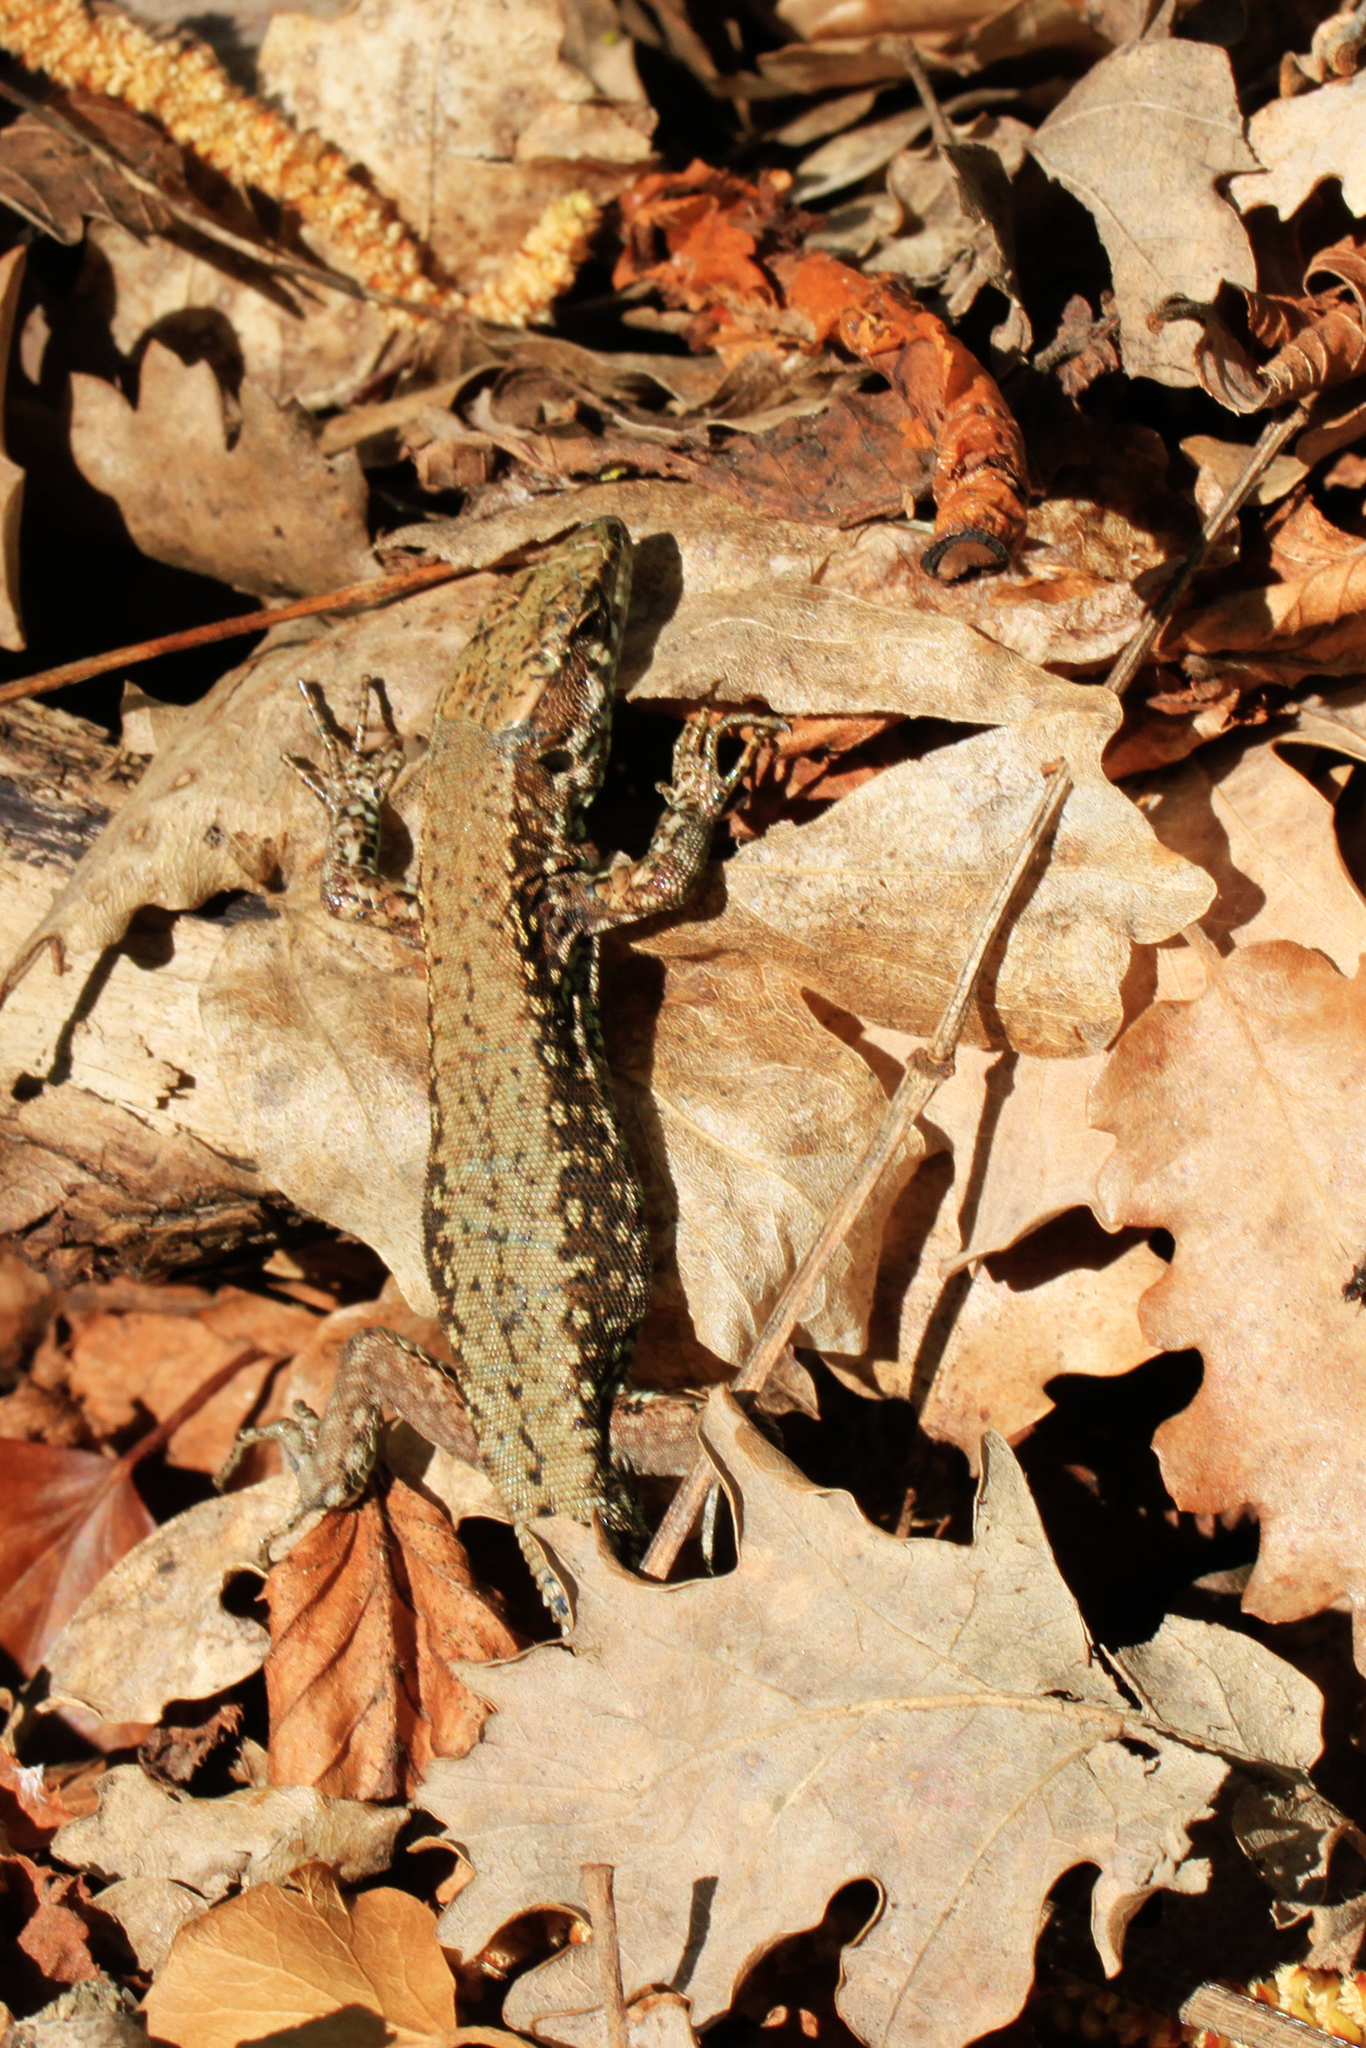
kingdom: Animalia
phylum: Chordata
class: Squamata
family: Lacertidae
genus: Podarcis
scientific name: Podarcis muralis
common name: Common wall lizard
